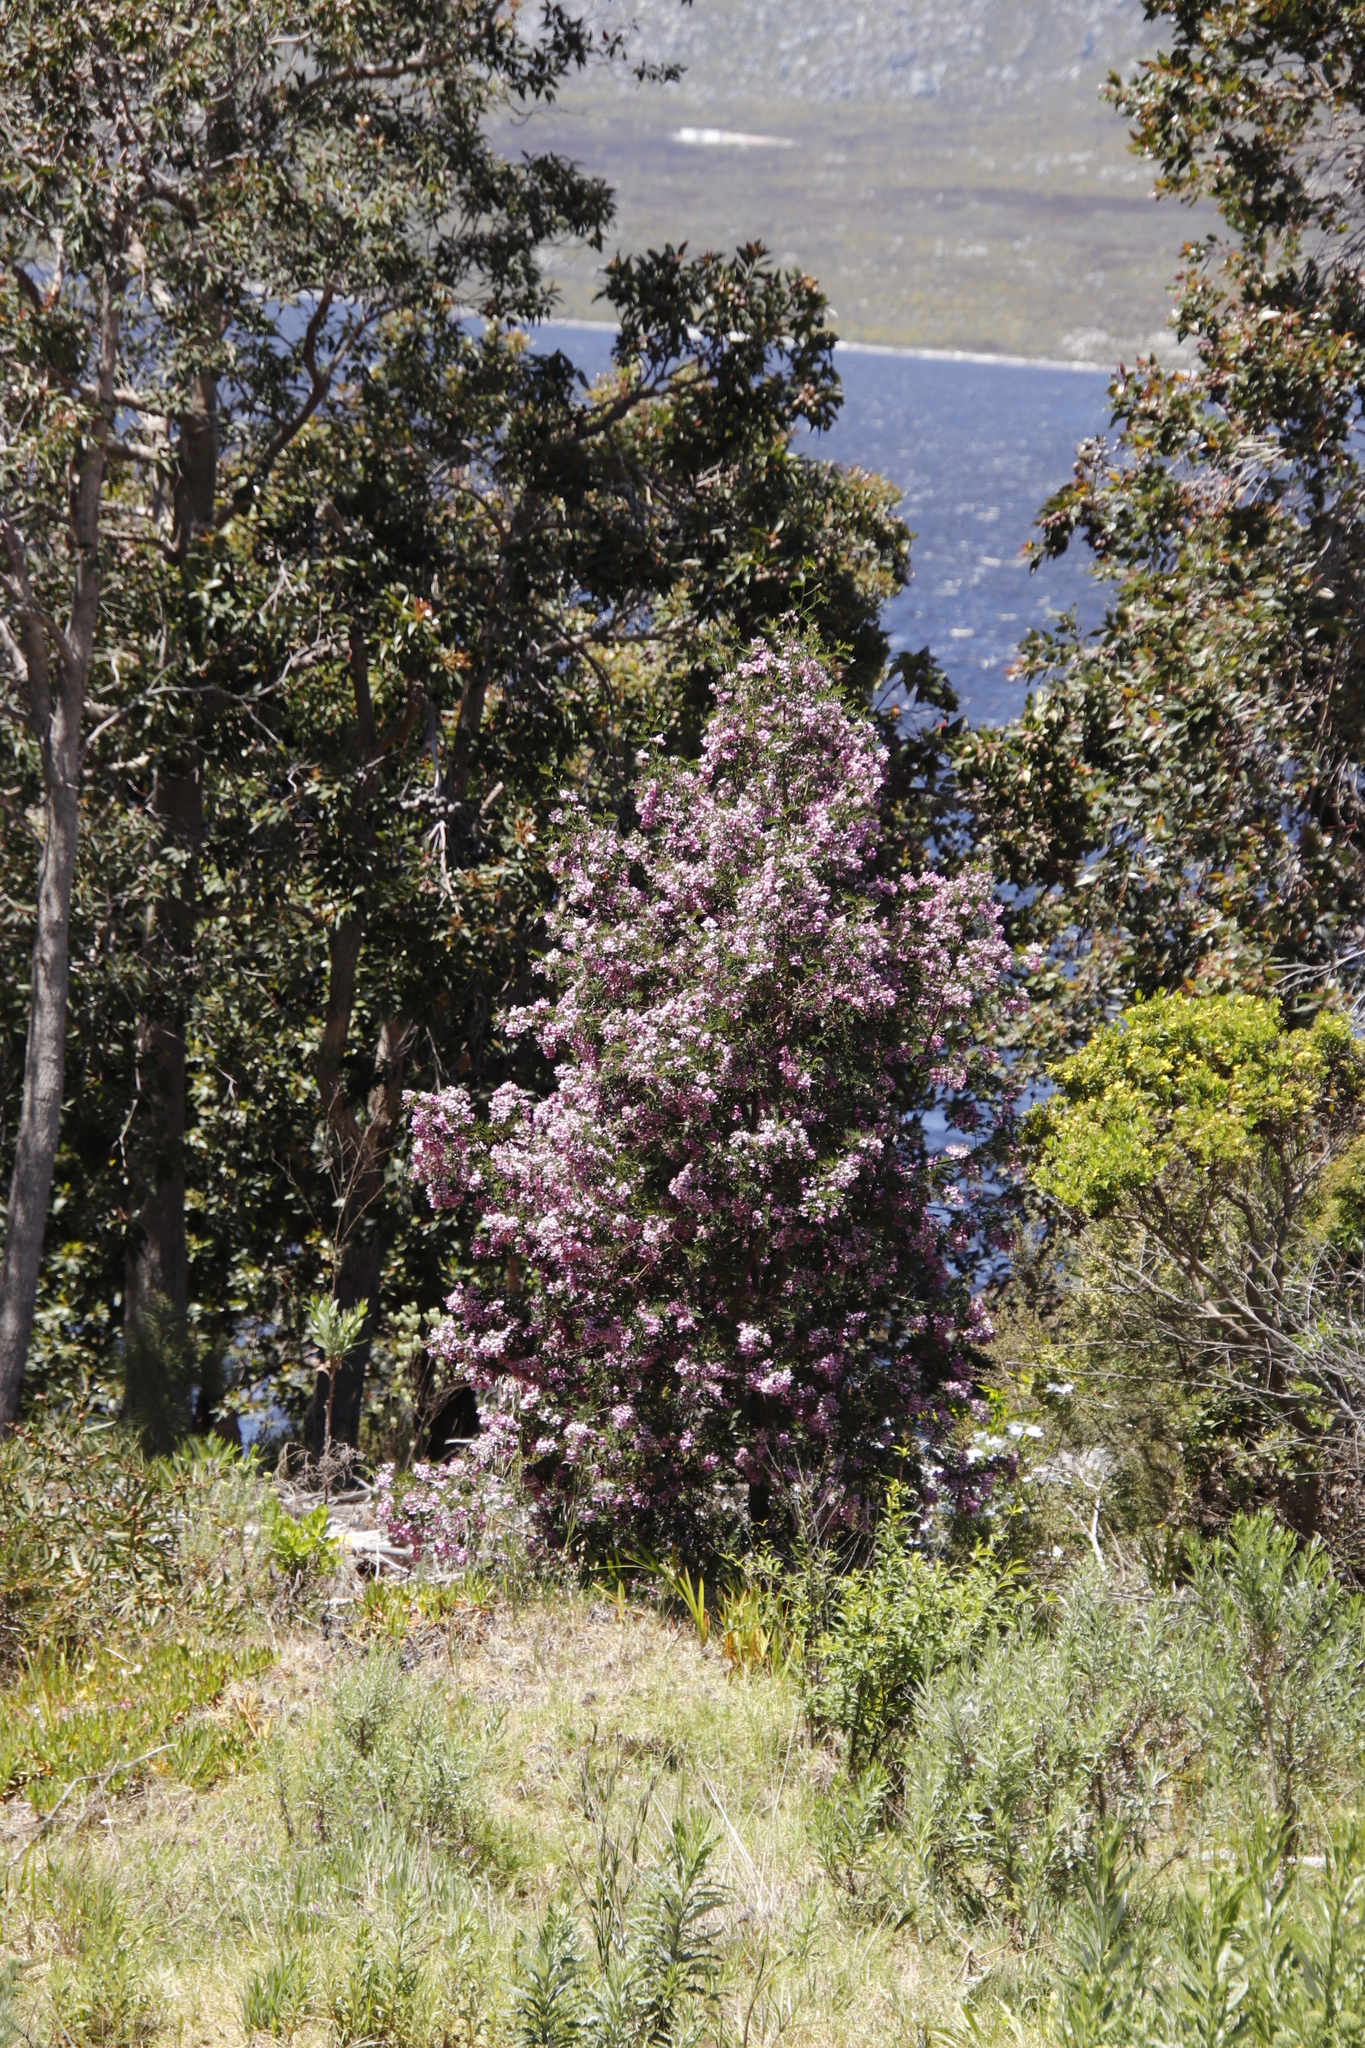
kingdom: Plantae
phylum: Tracheophyta
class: Magnoliopsida
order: Fabales
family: Fabaceae
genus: Virgilia
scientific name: Virgilia divaricata
